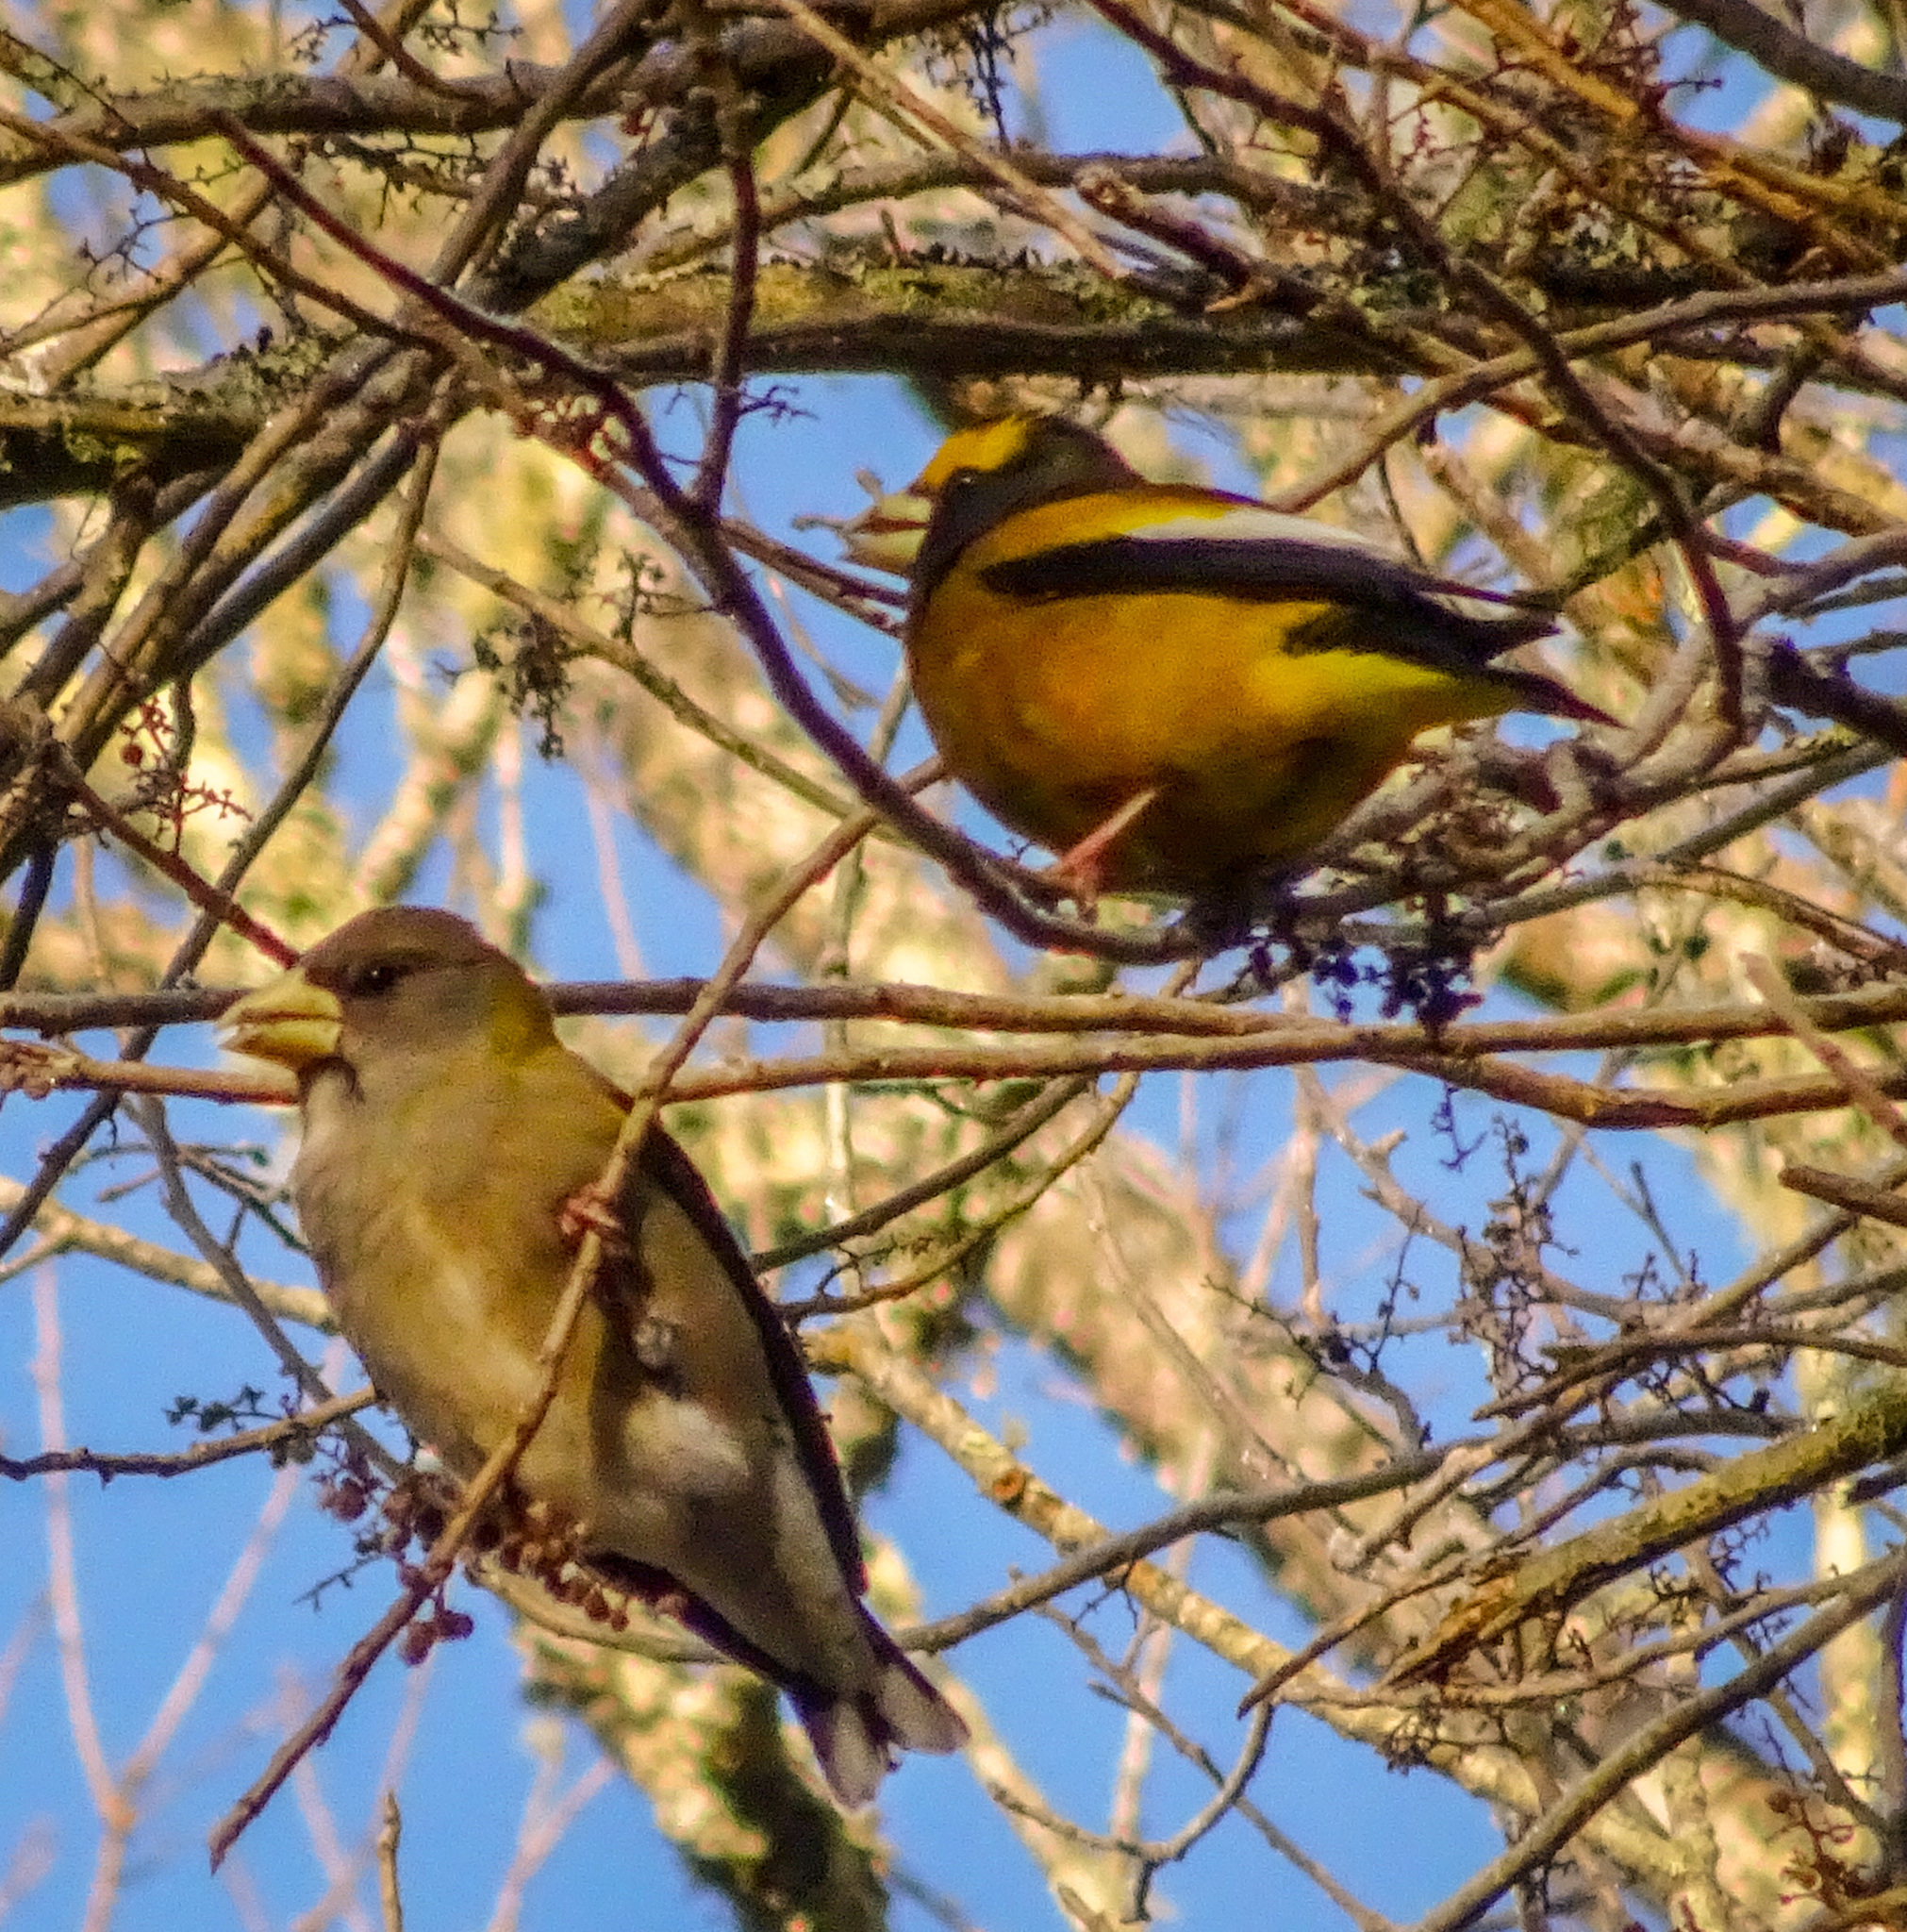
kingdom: Animalia
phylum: Chordata
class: Aves
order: Passeriformes
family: Fringillidae
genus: Hesperiphona
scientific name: Hesperiphona vespertina
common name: Evening grosbeak
